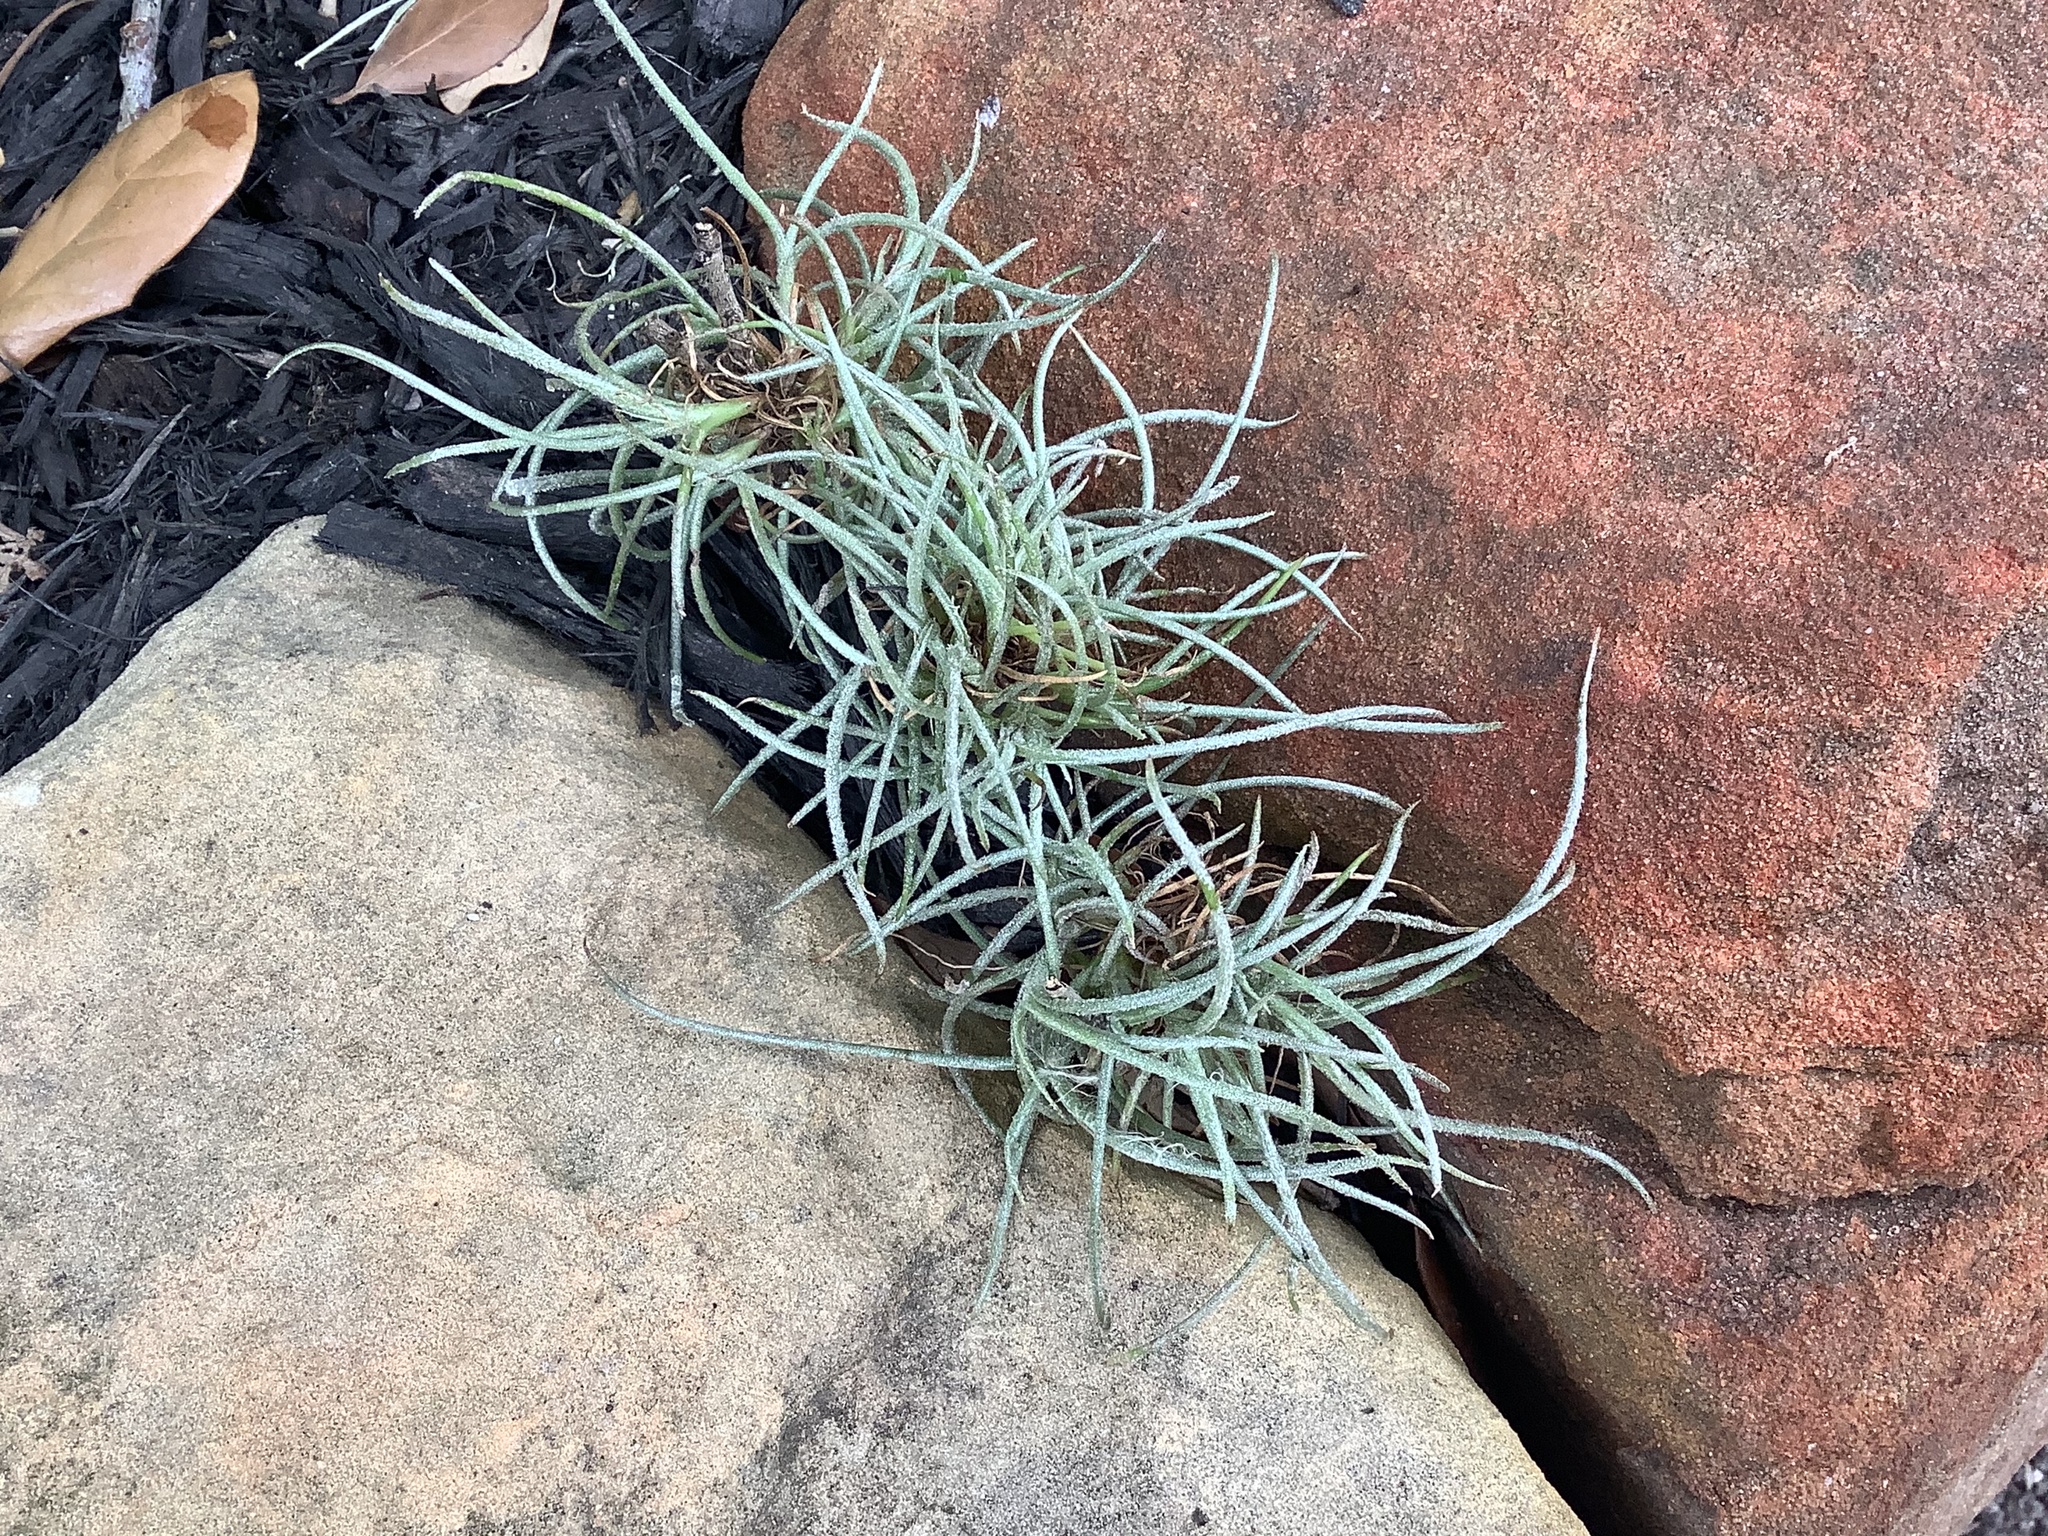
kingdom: Plantae
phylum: Tracheophyta
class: Liliopsida
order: Poales
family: Bromeliaceae
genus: Tillandsia
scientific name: Tillandsia recurvata
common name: Small ballmoss
